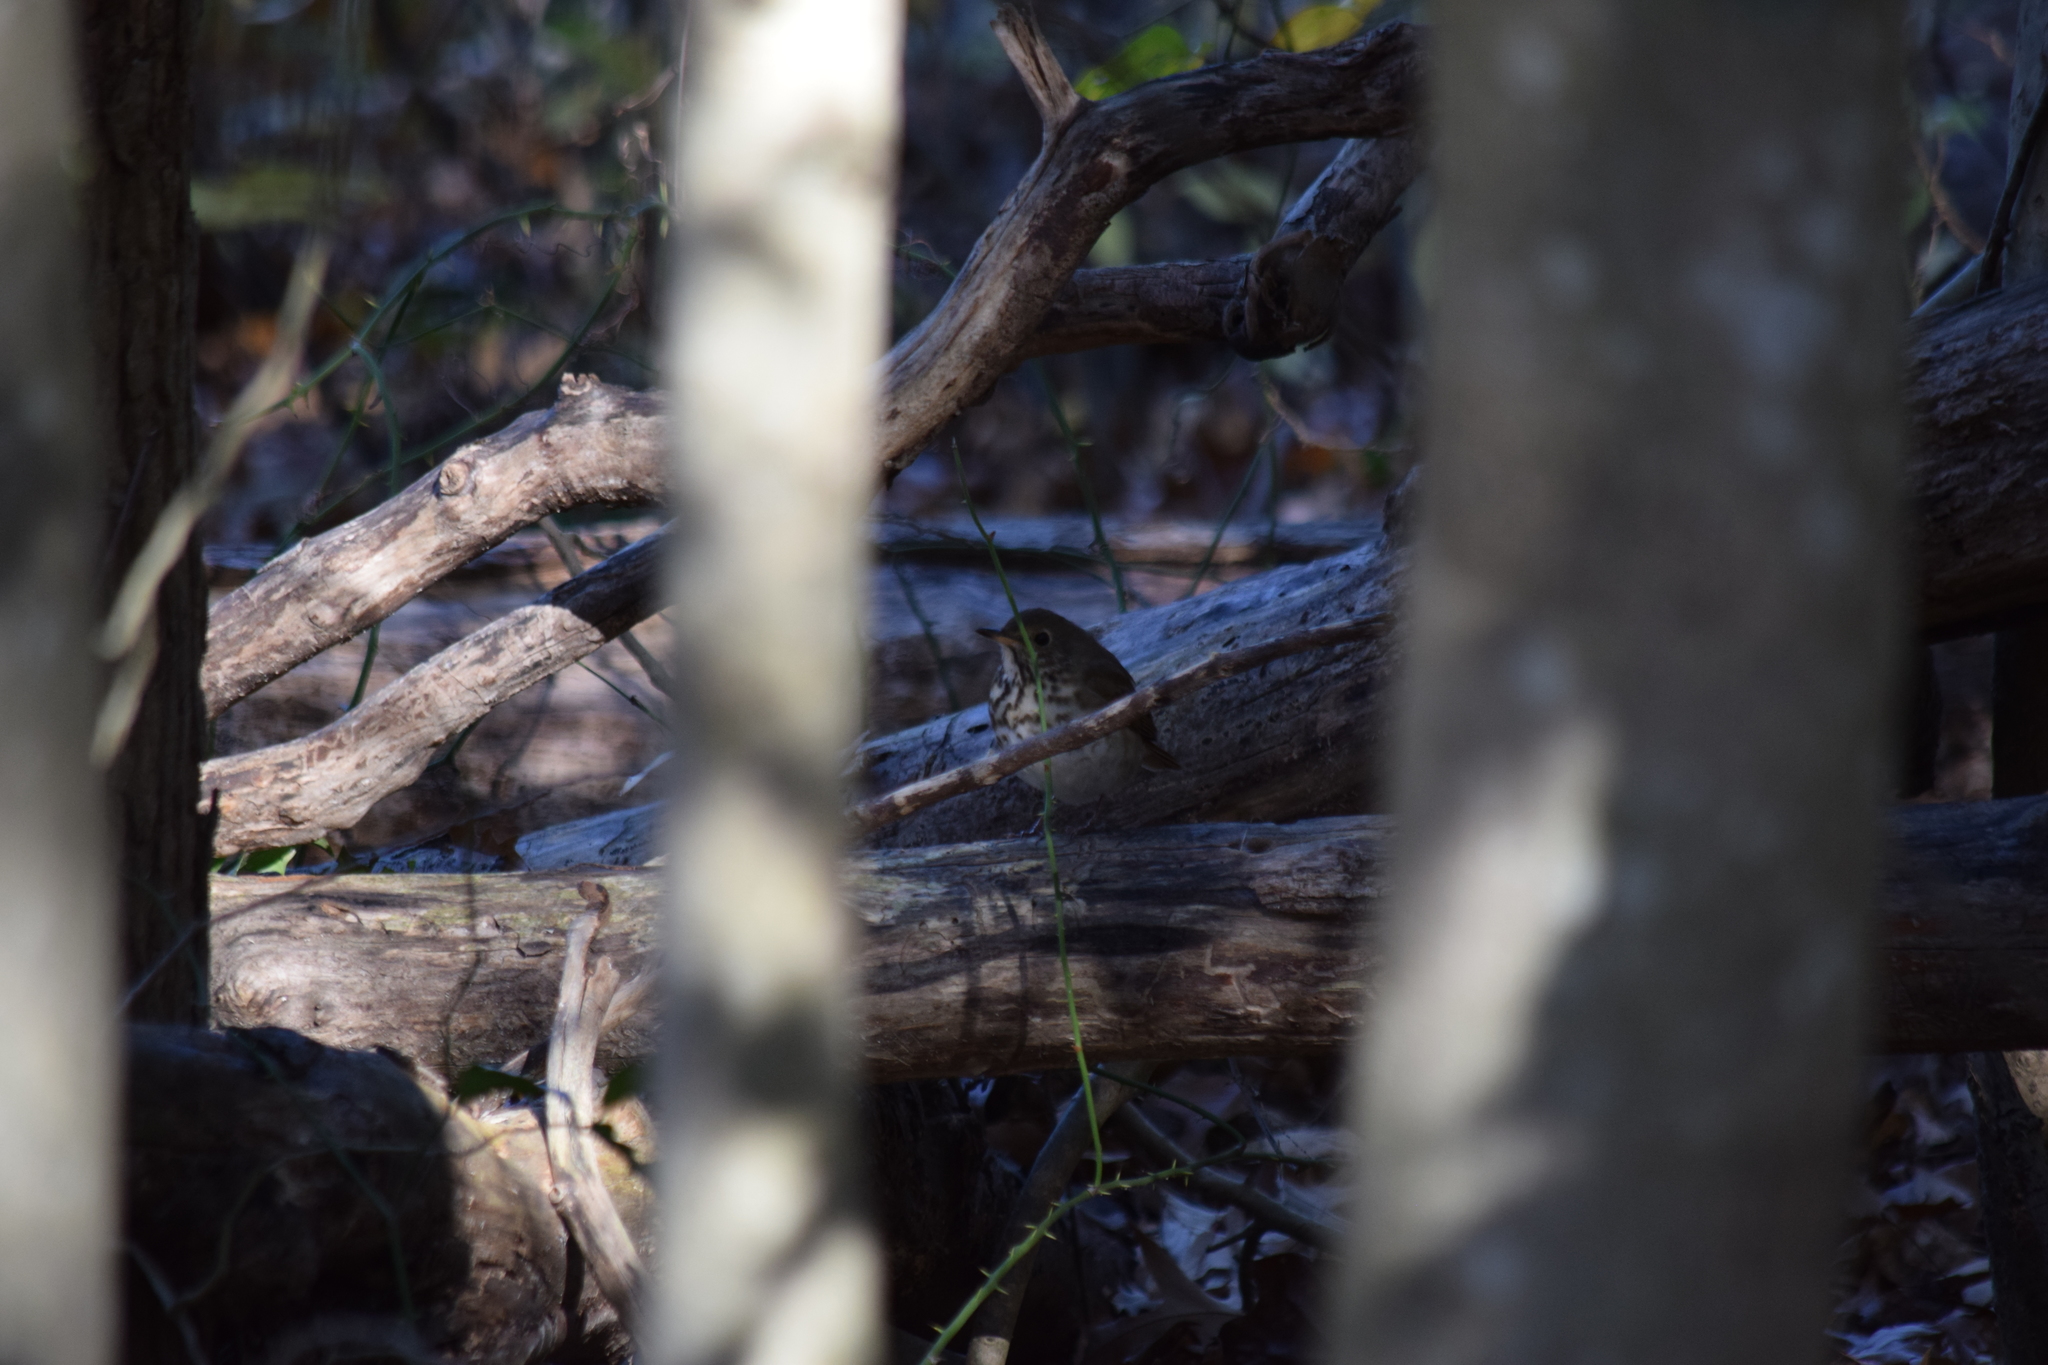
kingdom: Animalia
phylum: Chordata
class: Aves
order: Passeriformes
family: Turdidae
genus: Catharus
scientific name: Catharus guttatus
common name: Hermit thrush
